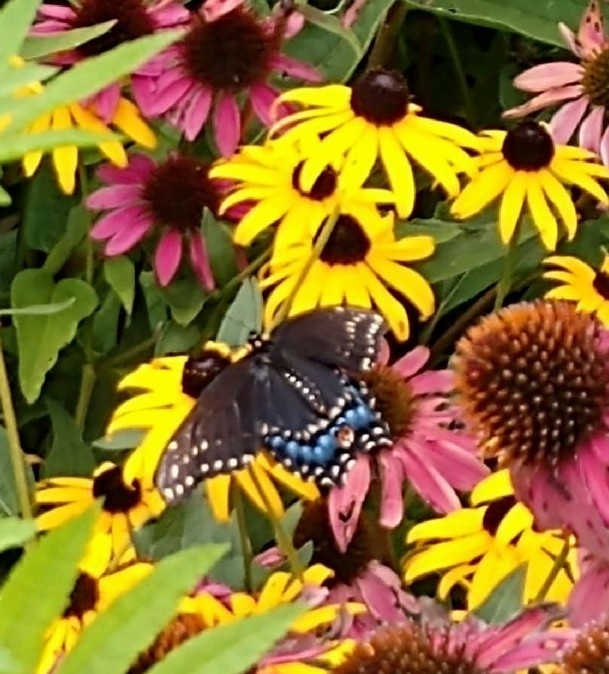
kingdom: Animalia
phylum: Arthropoda
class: Insecta
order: Lepidoptera
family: Papilionidae
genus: Papilio
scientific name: Papilio polyxenes
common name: Black swallowtail
